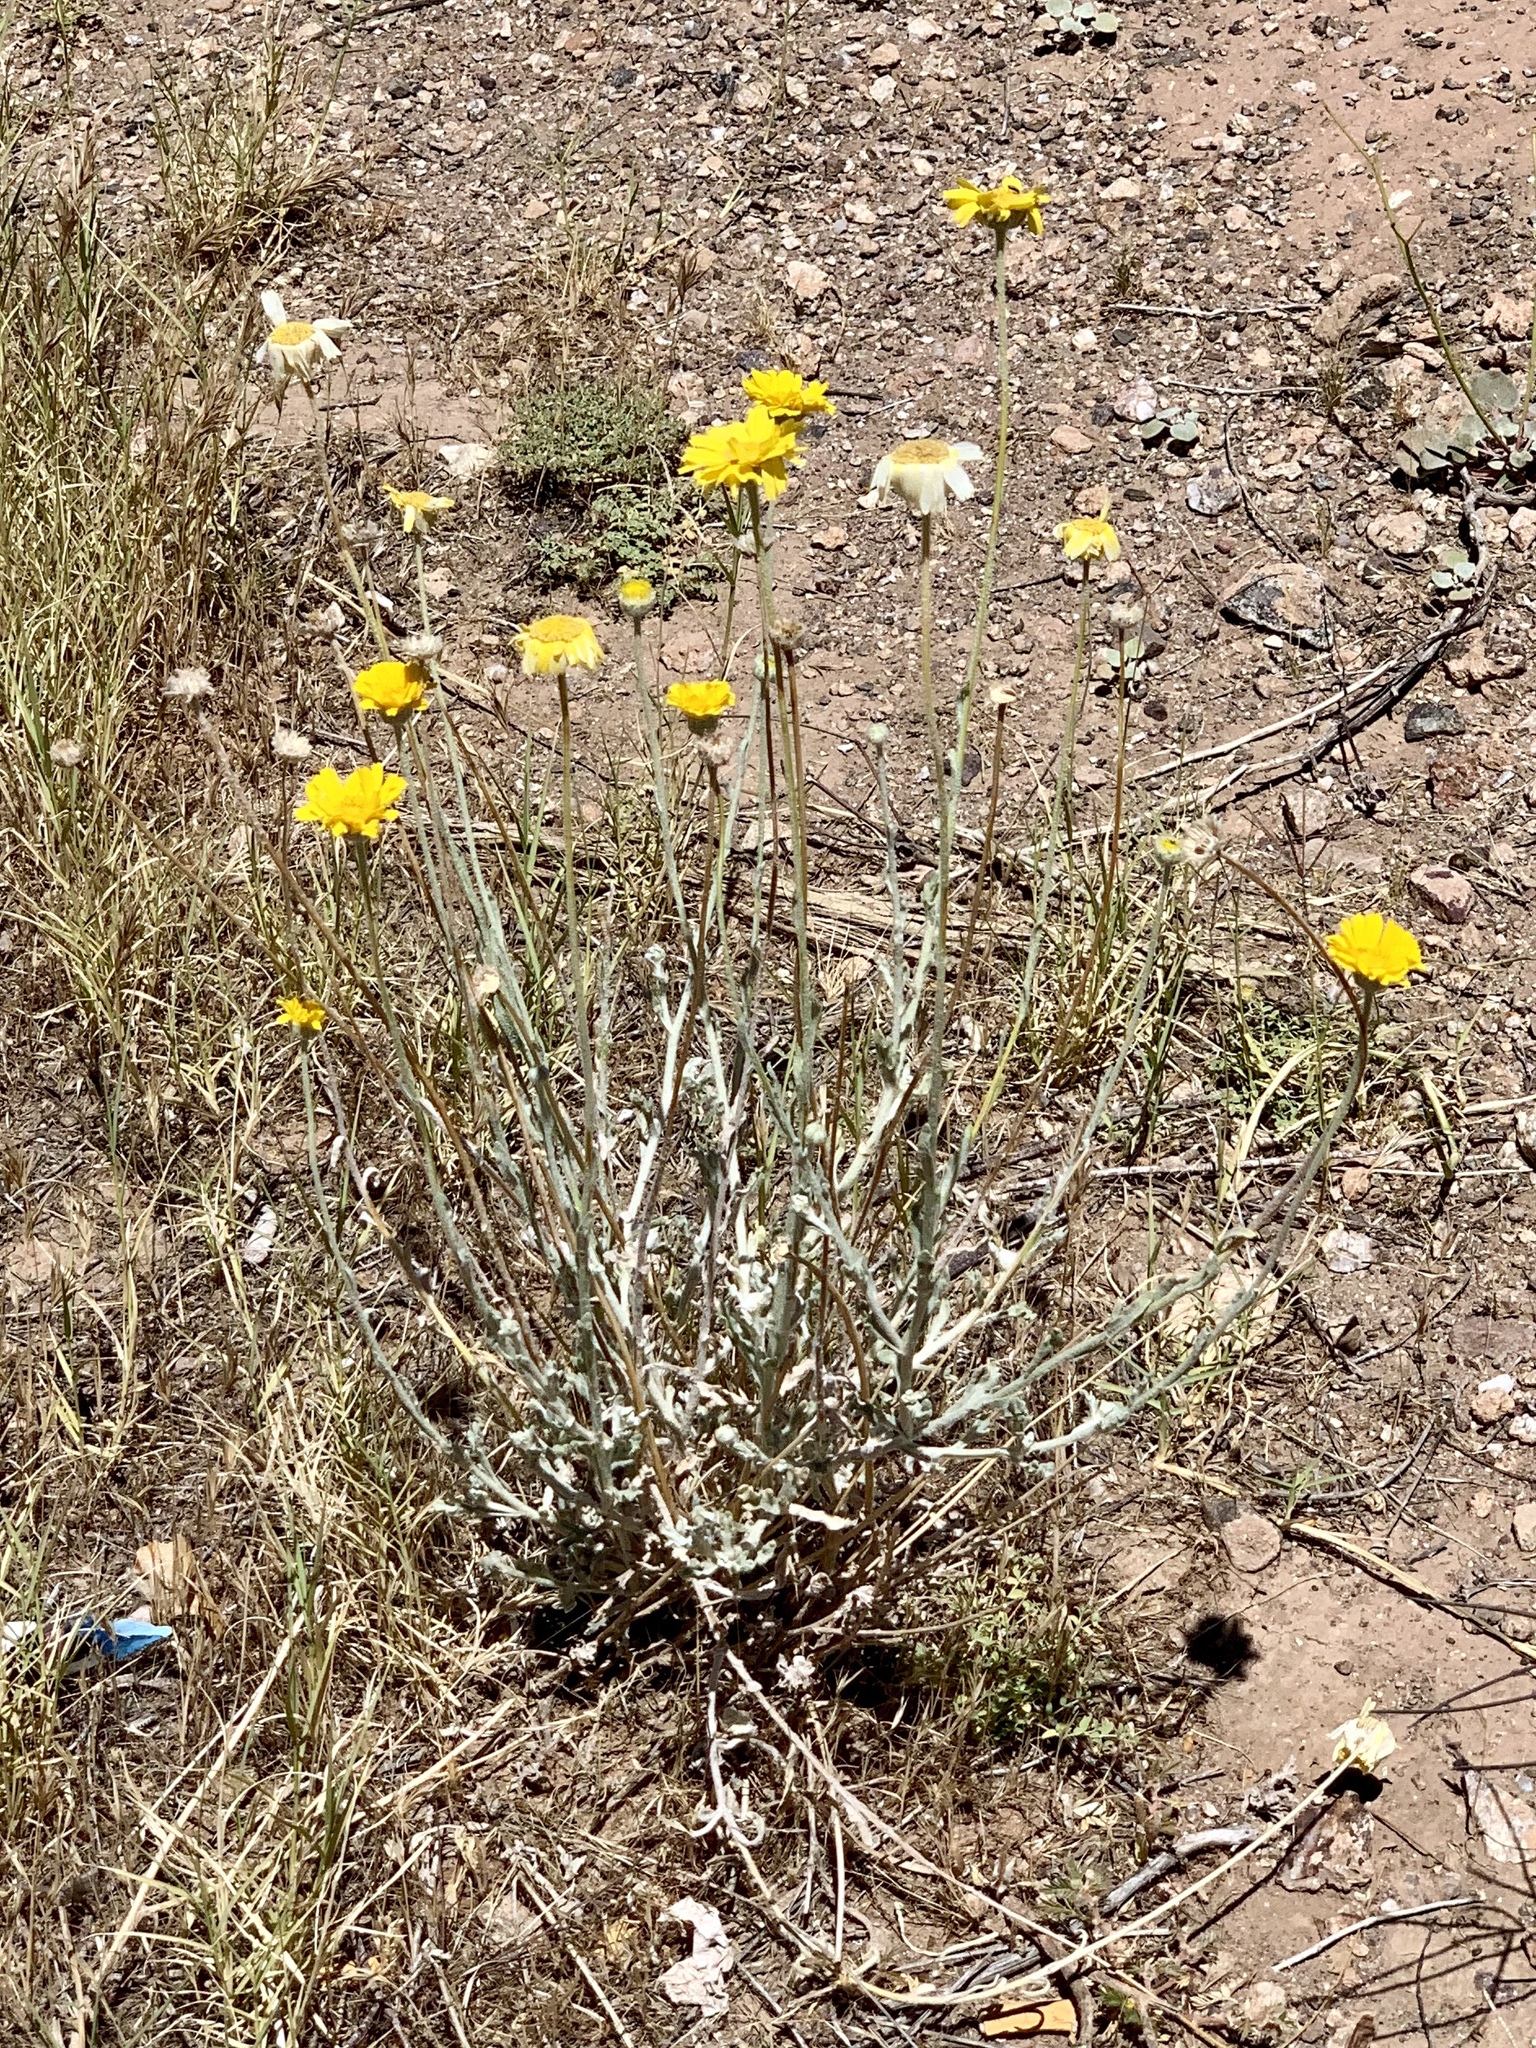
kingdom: Plantae
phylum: Tracheophyta
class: Magnoliopsida
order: Asterales
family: Asteraceae
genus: Baileya
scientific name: Baileya multiradiata
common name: Desert-marigold
